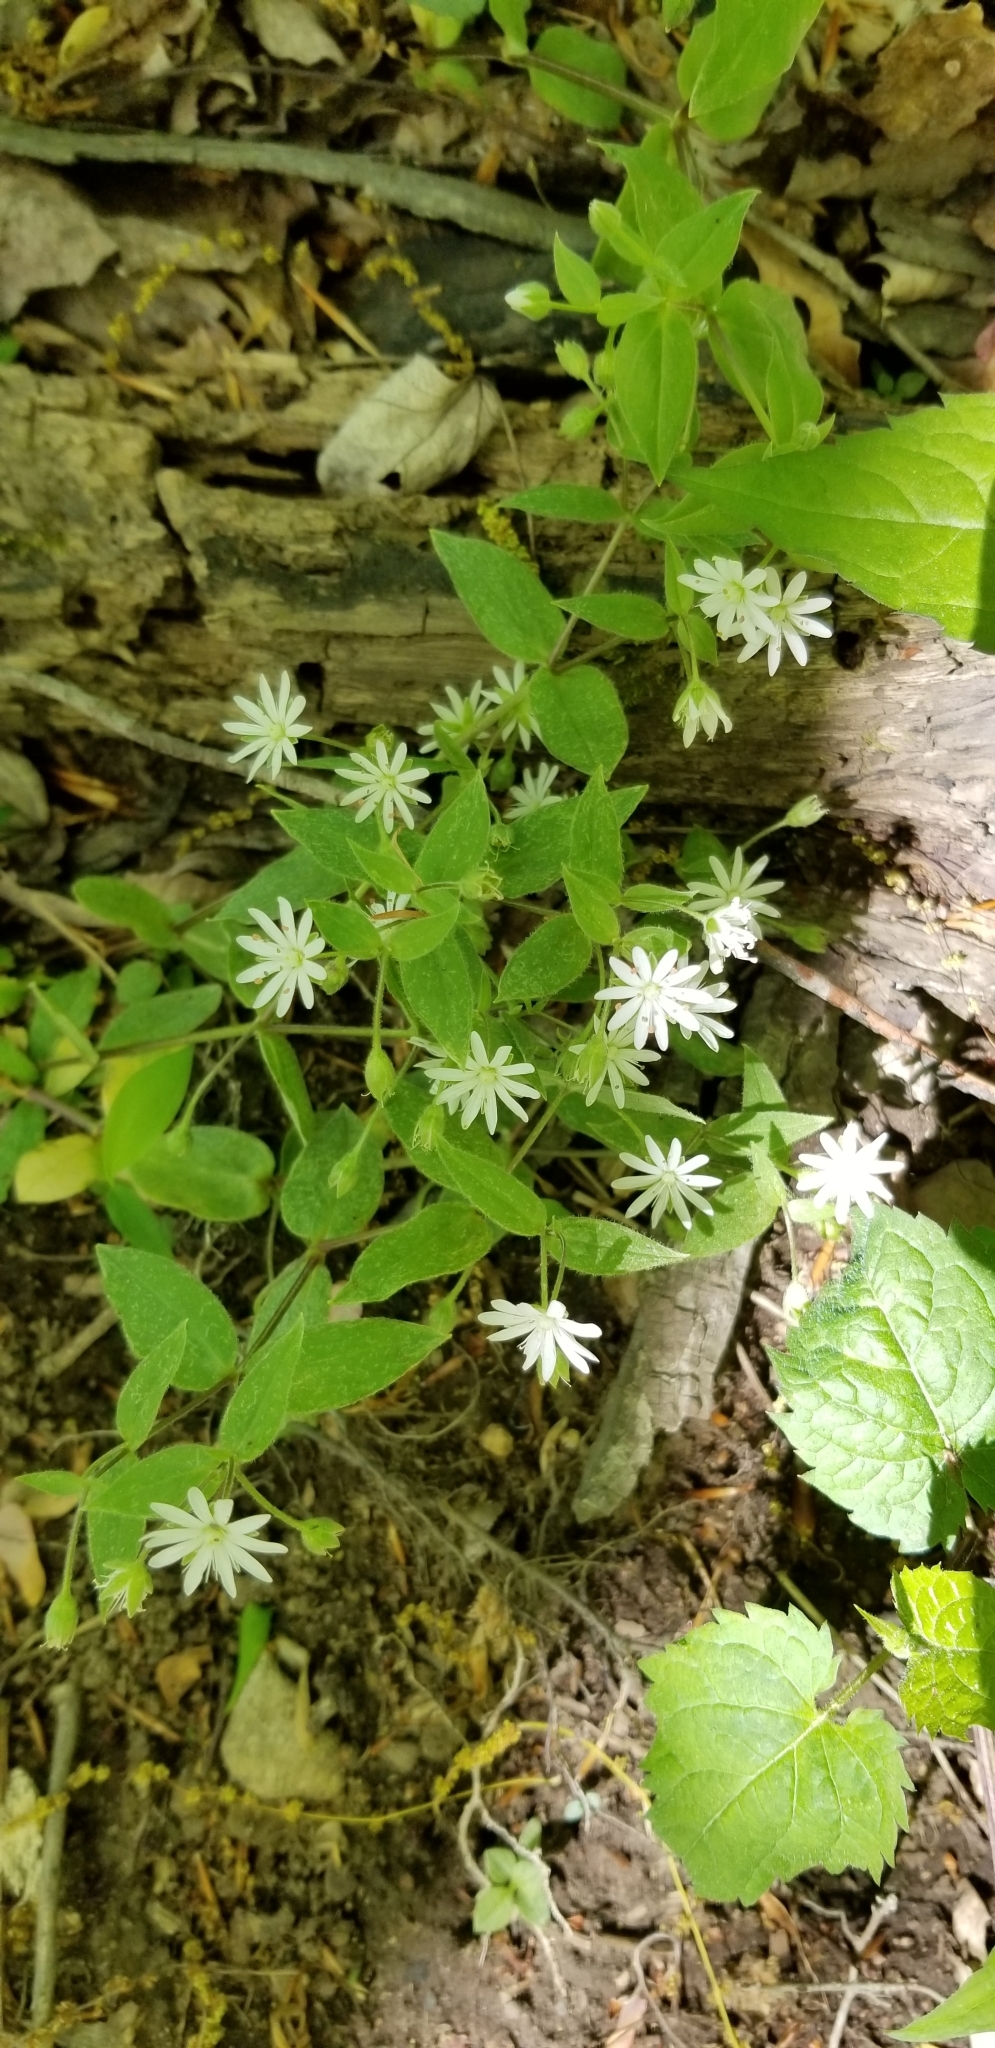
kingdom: Plantae
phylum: Tracheophyta
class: Magnoliopsida
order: Caryophyllales
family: Caryophyllaceae
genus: Stellaria
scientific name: Stellaria pubera
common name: Star chickweed
